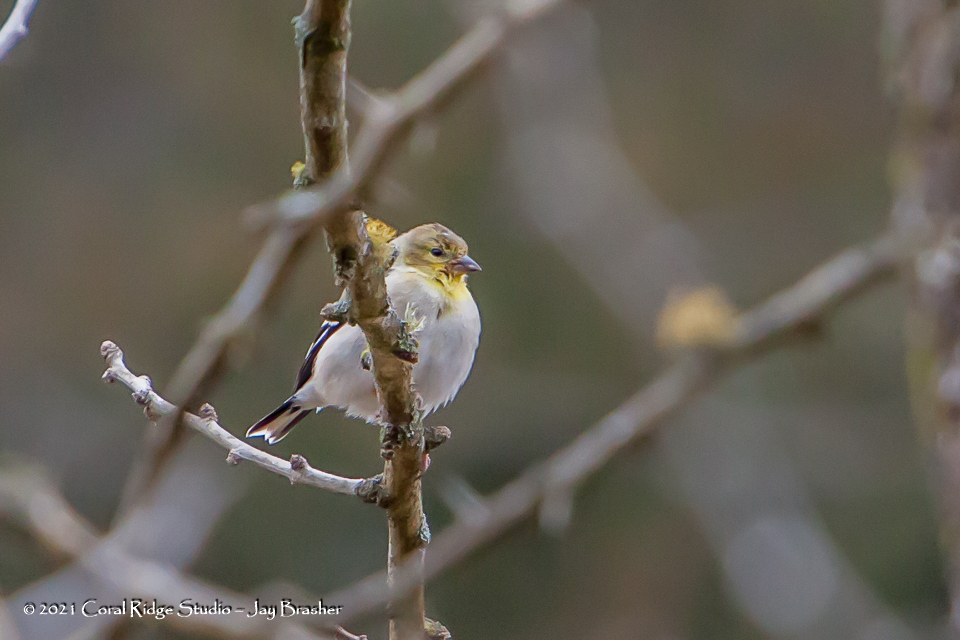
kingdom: Animalia
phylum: Chordata
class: Aves
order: Passeriformes
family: Fringillidae
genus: Spinus
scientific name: Spinus tristis
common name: American goldfinch
